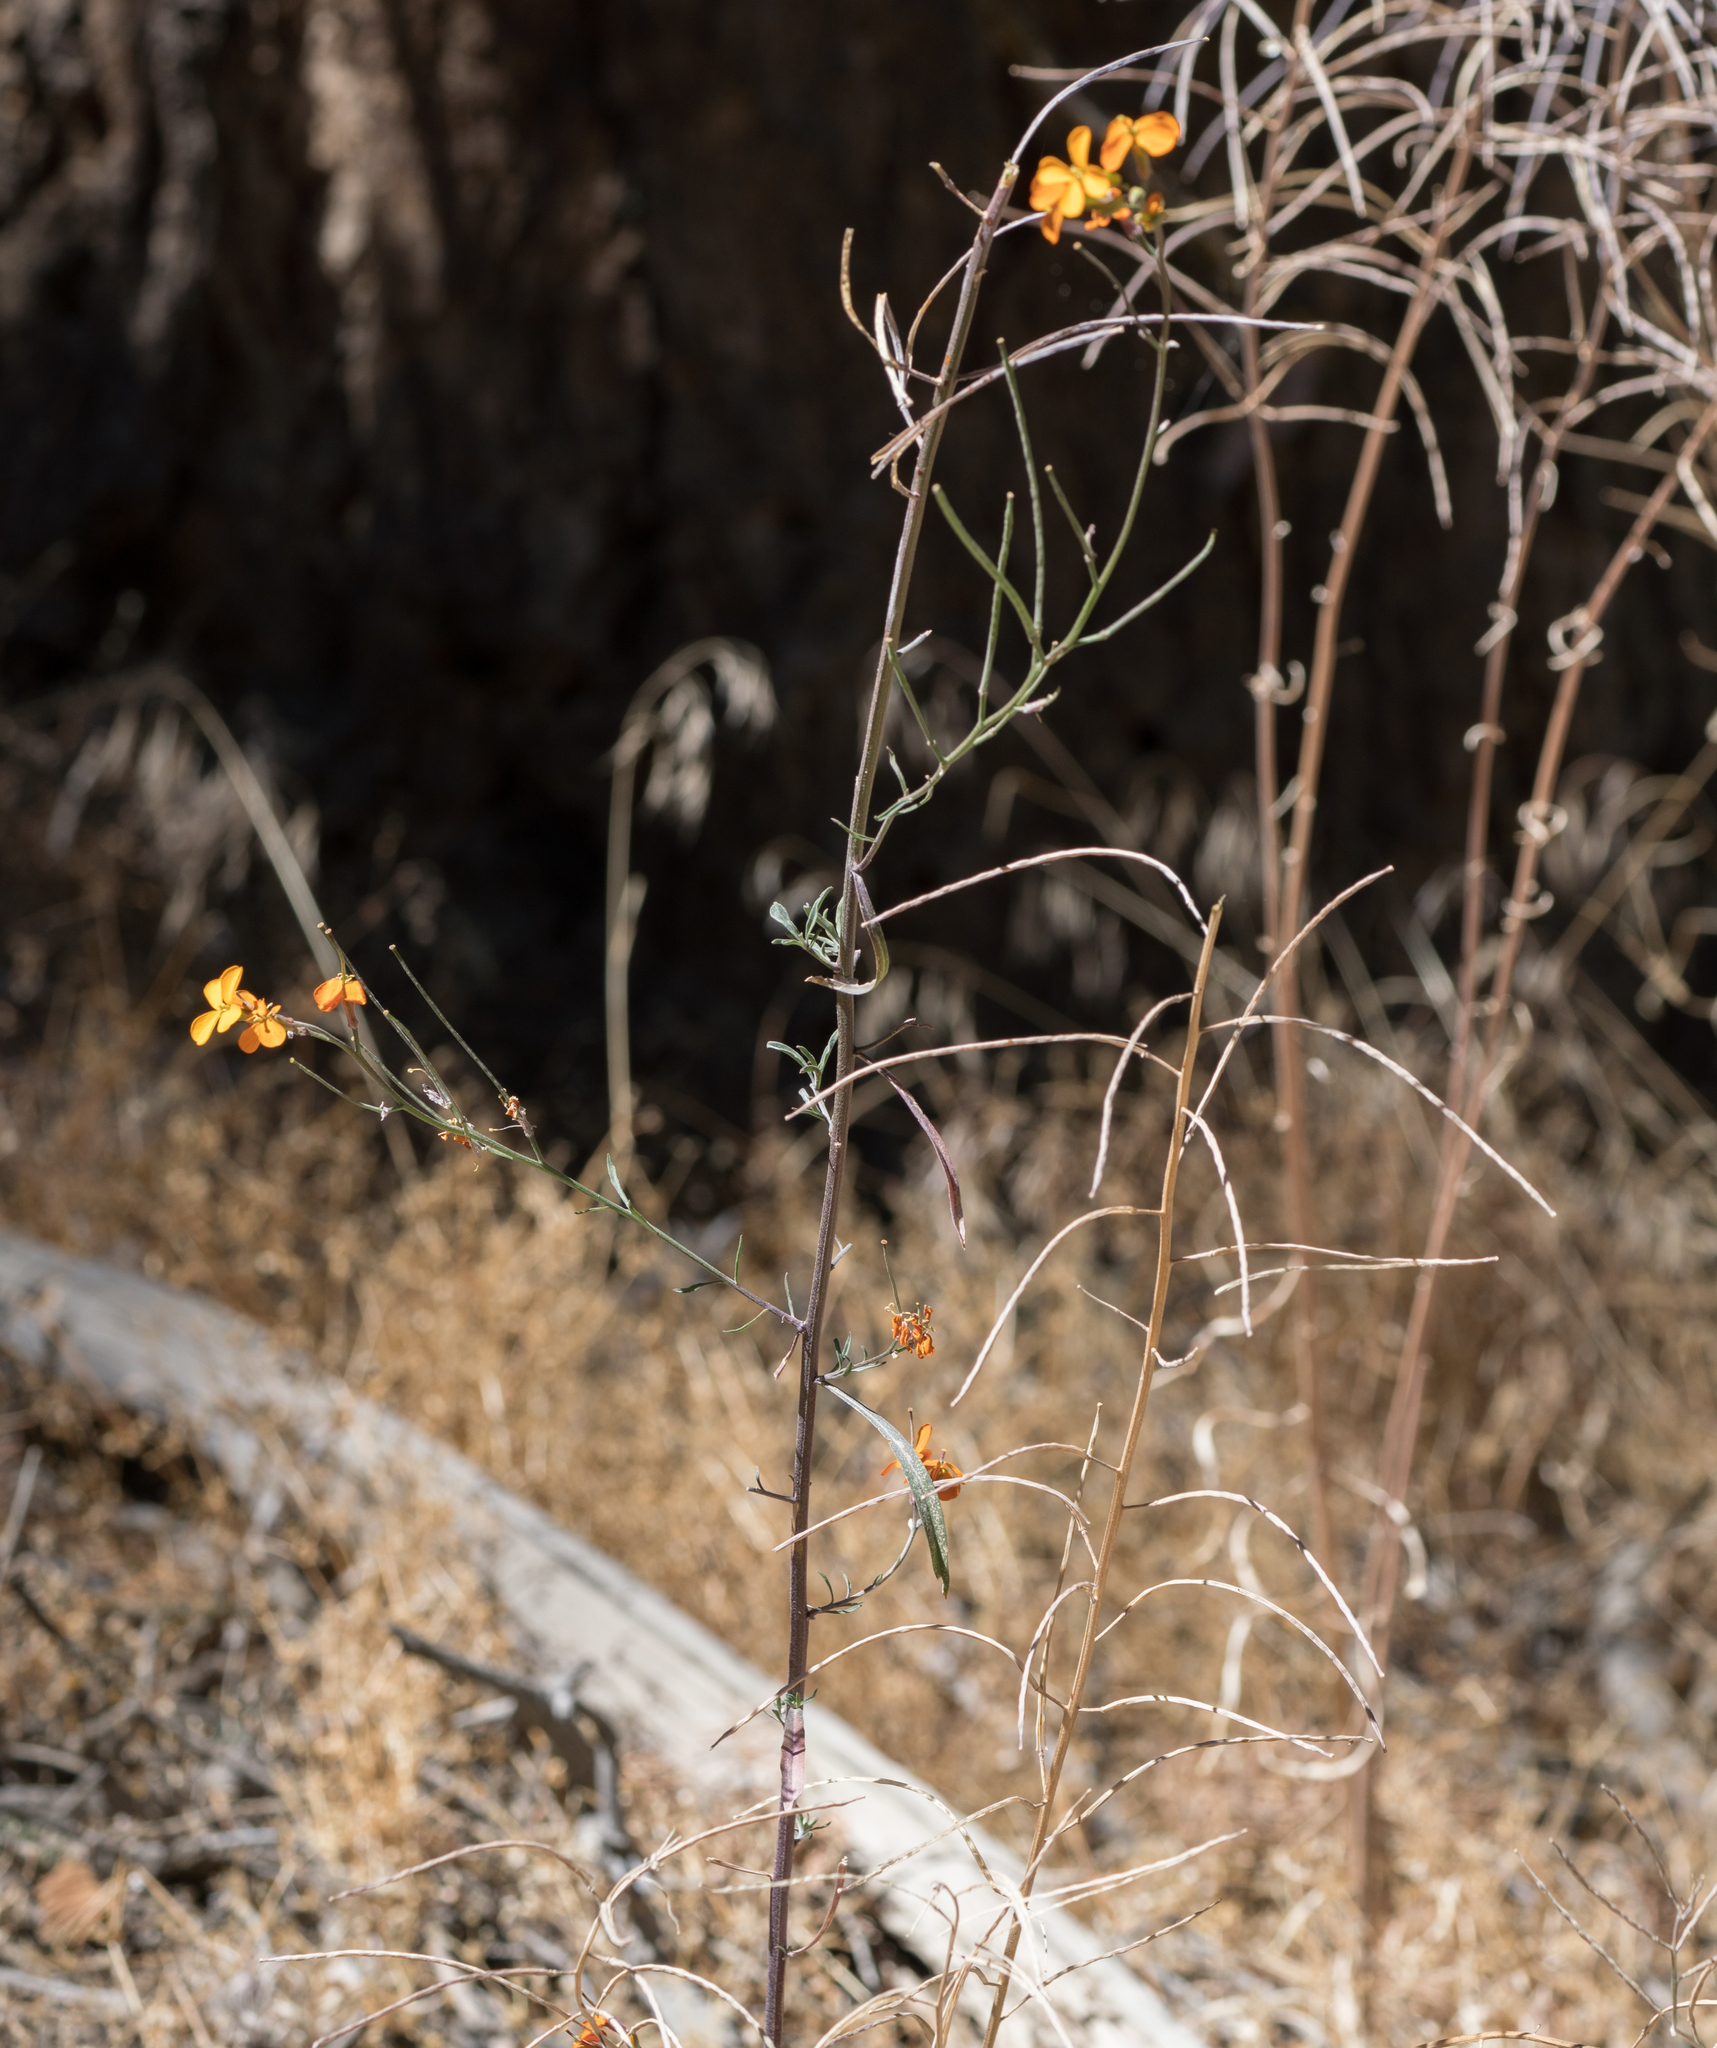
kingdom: Plantae
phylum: Tracheophyta
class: Magnoliopsida
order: Brassicales
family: Brassicaceae
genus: Erysimum
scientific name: Erysimum capitatum
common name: Western wallflower
